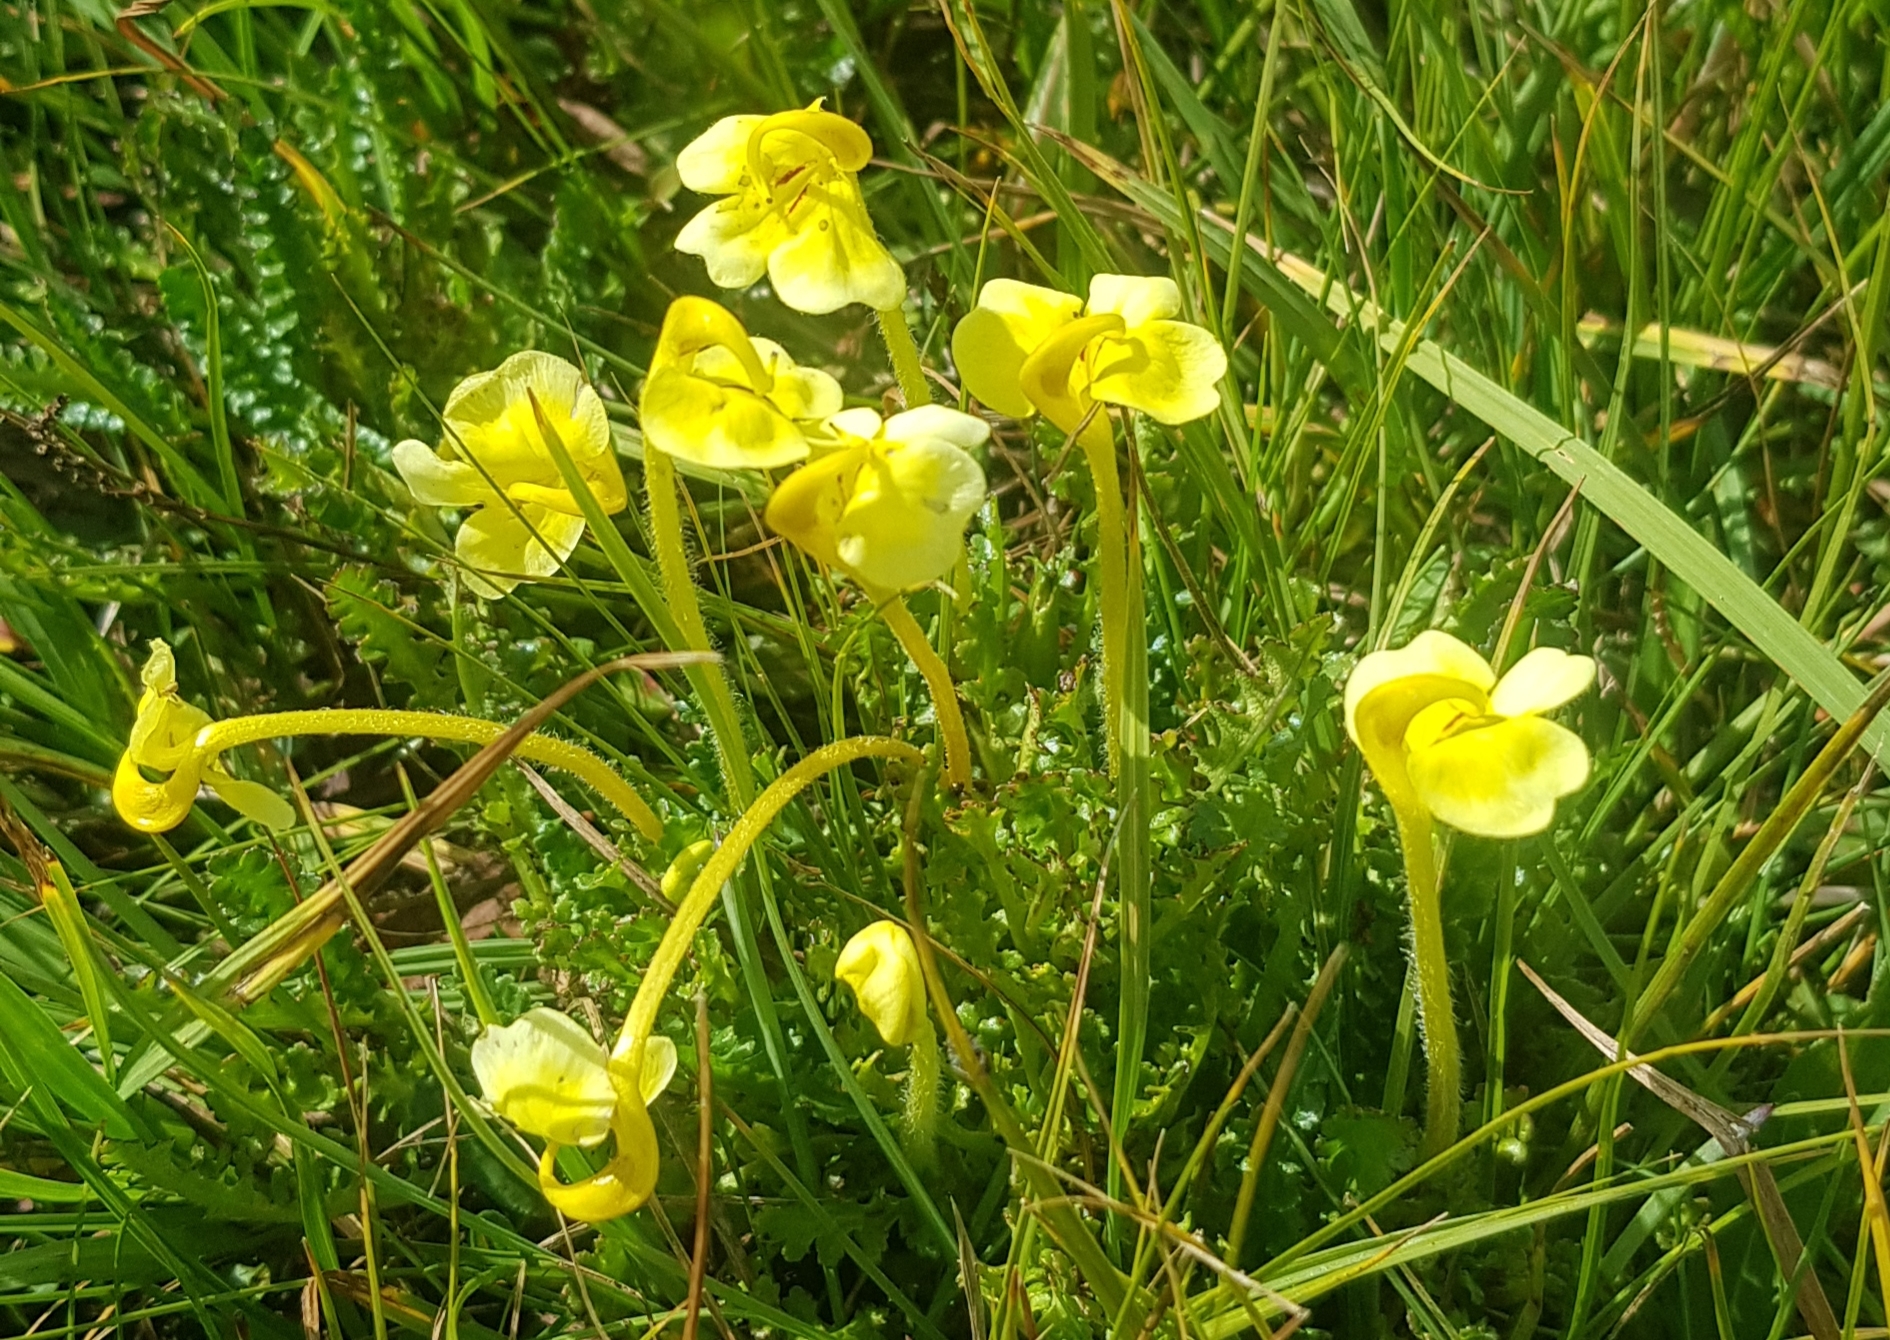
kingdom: Plantae
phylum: Tracheophyta
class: Magnoliopsida
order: Lamiales
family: Orobanchaceae
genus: Pedicularis
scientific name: Pedicularis longiflora
